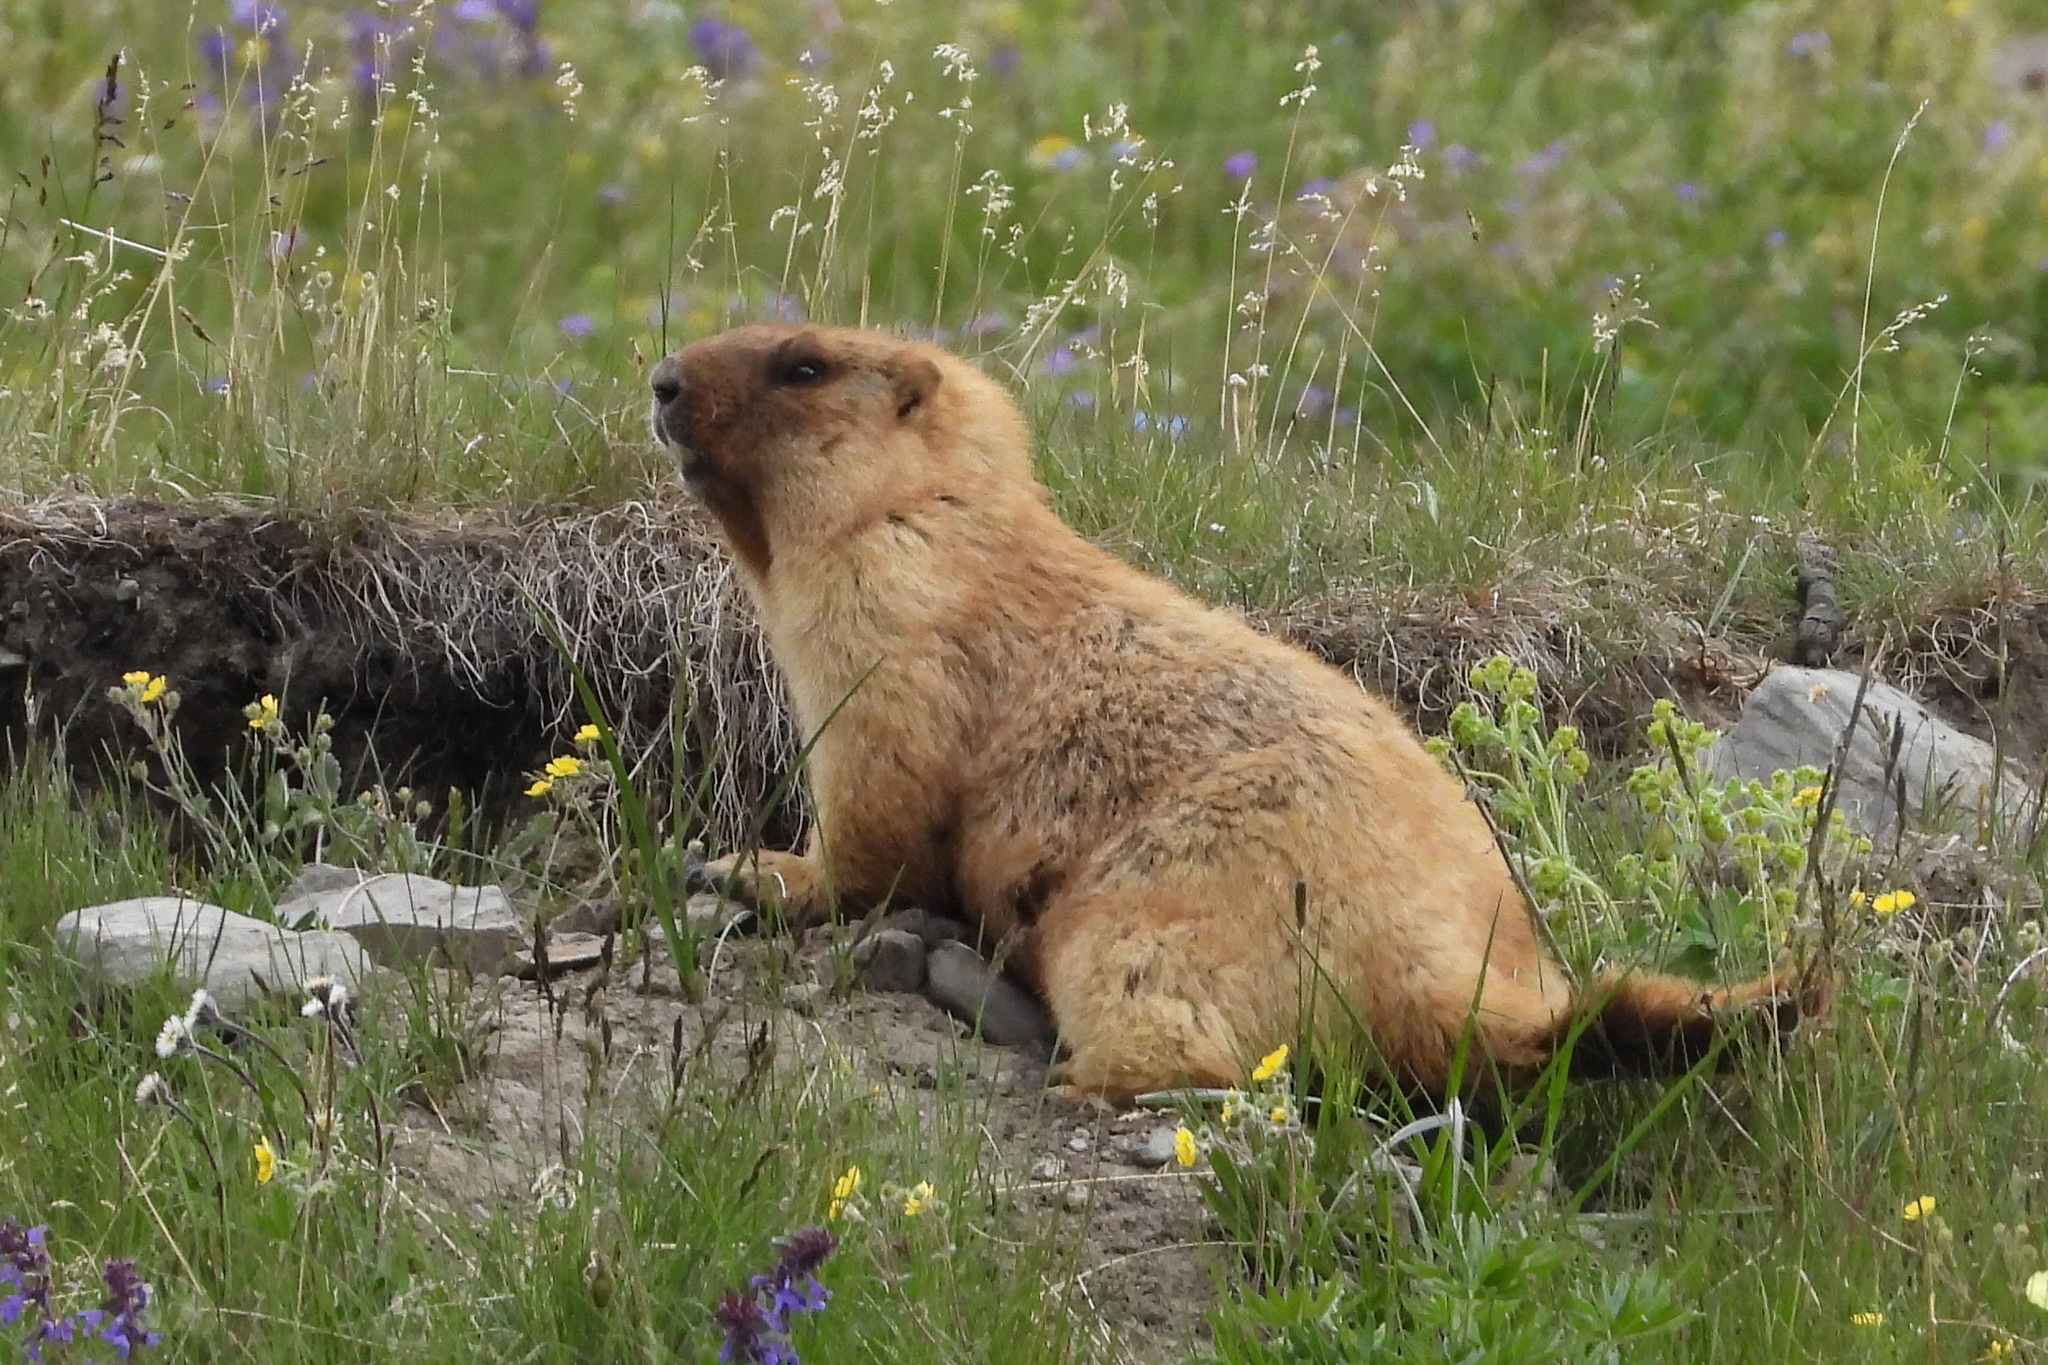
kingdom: Animalia
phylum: Chordata
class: Mammalia
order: Rodentia
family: Sciuridae
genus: Marmota
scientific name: Marmota baibacina
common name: Gray marmot
